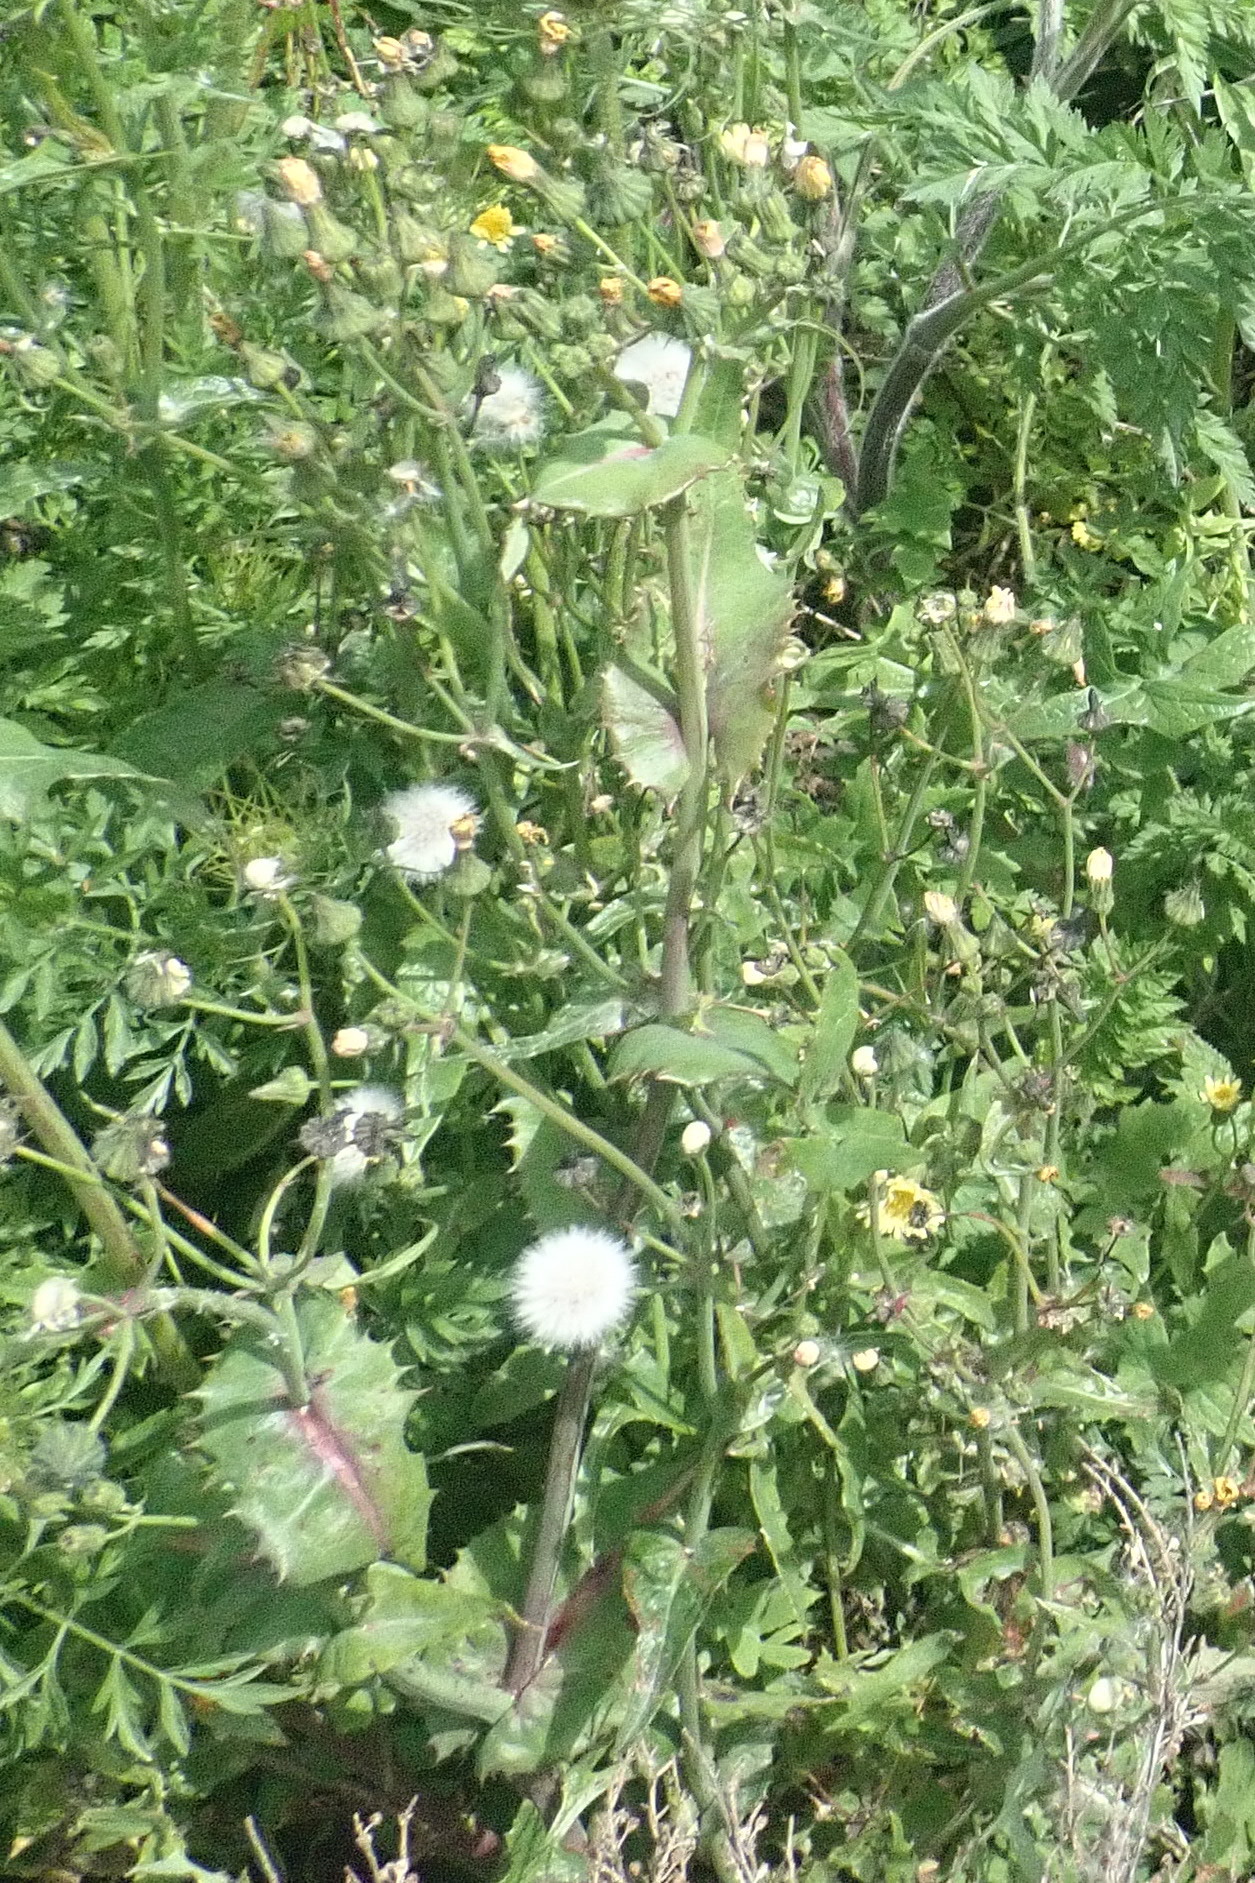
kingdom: Plantae
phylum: Tracheophyta
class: Magnoliopsida
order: Asterales
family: Asteraceae
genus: Sonchus
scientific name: Sonchus oleraceus
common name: Common sowthistle
